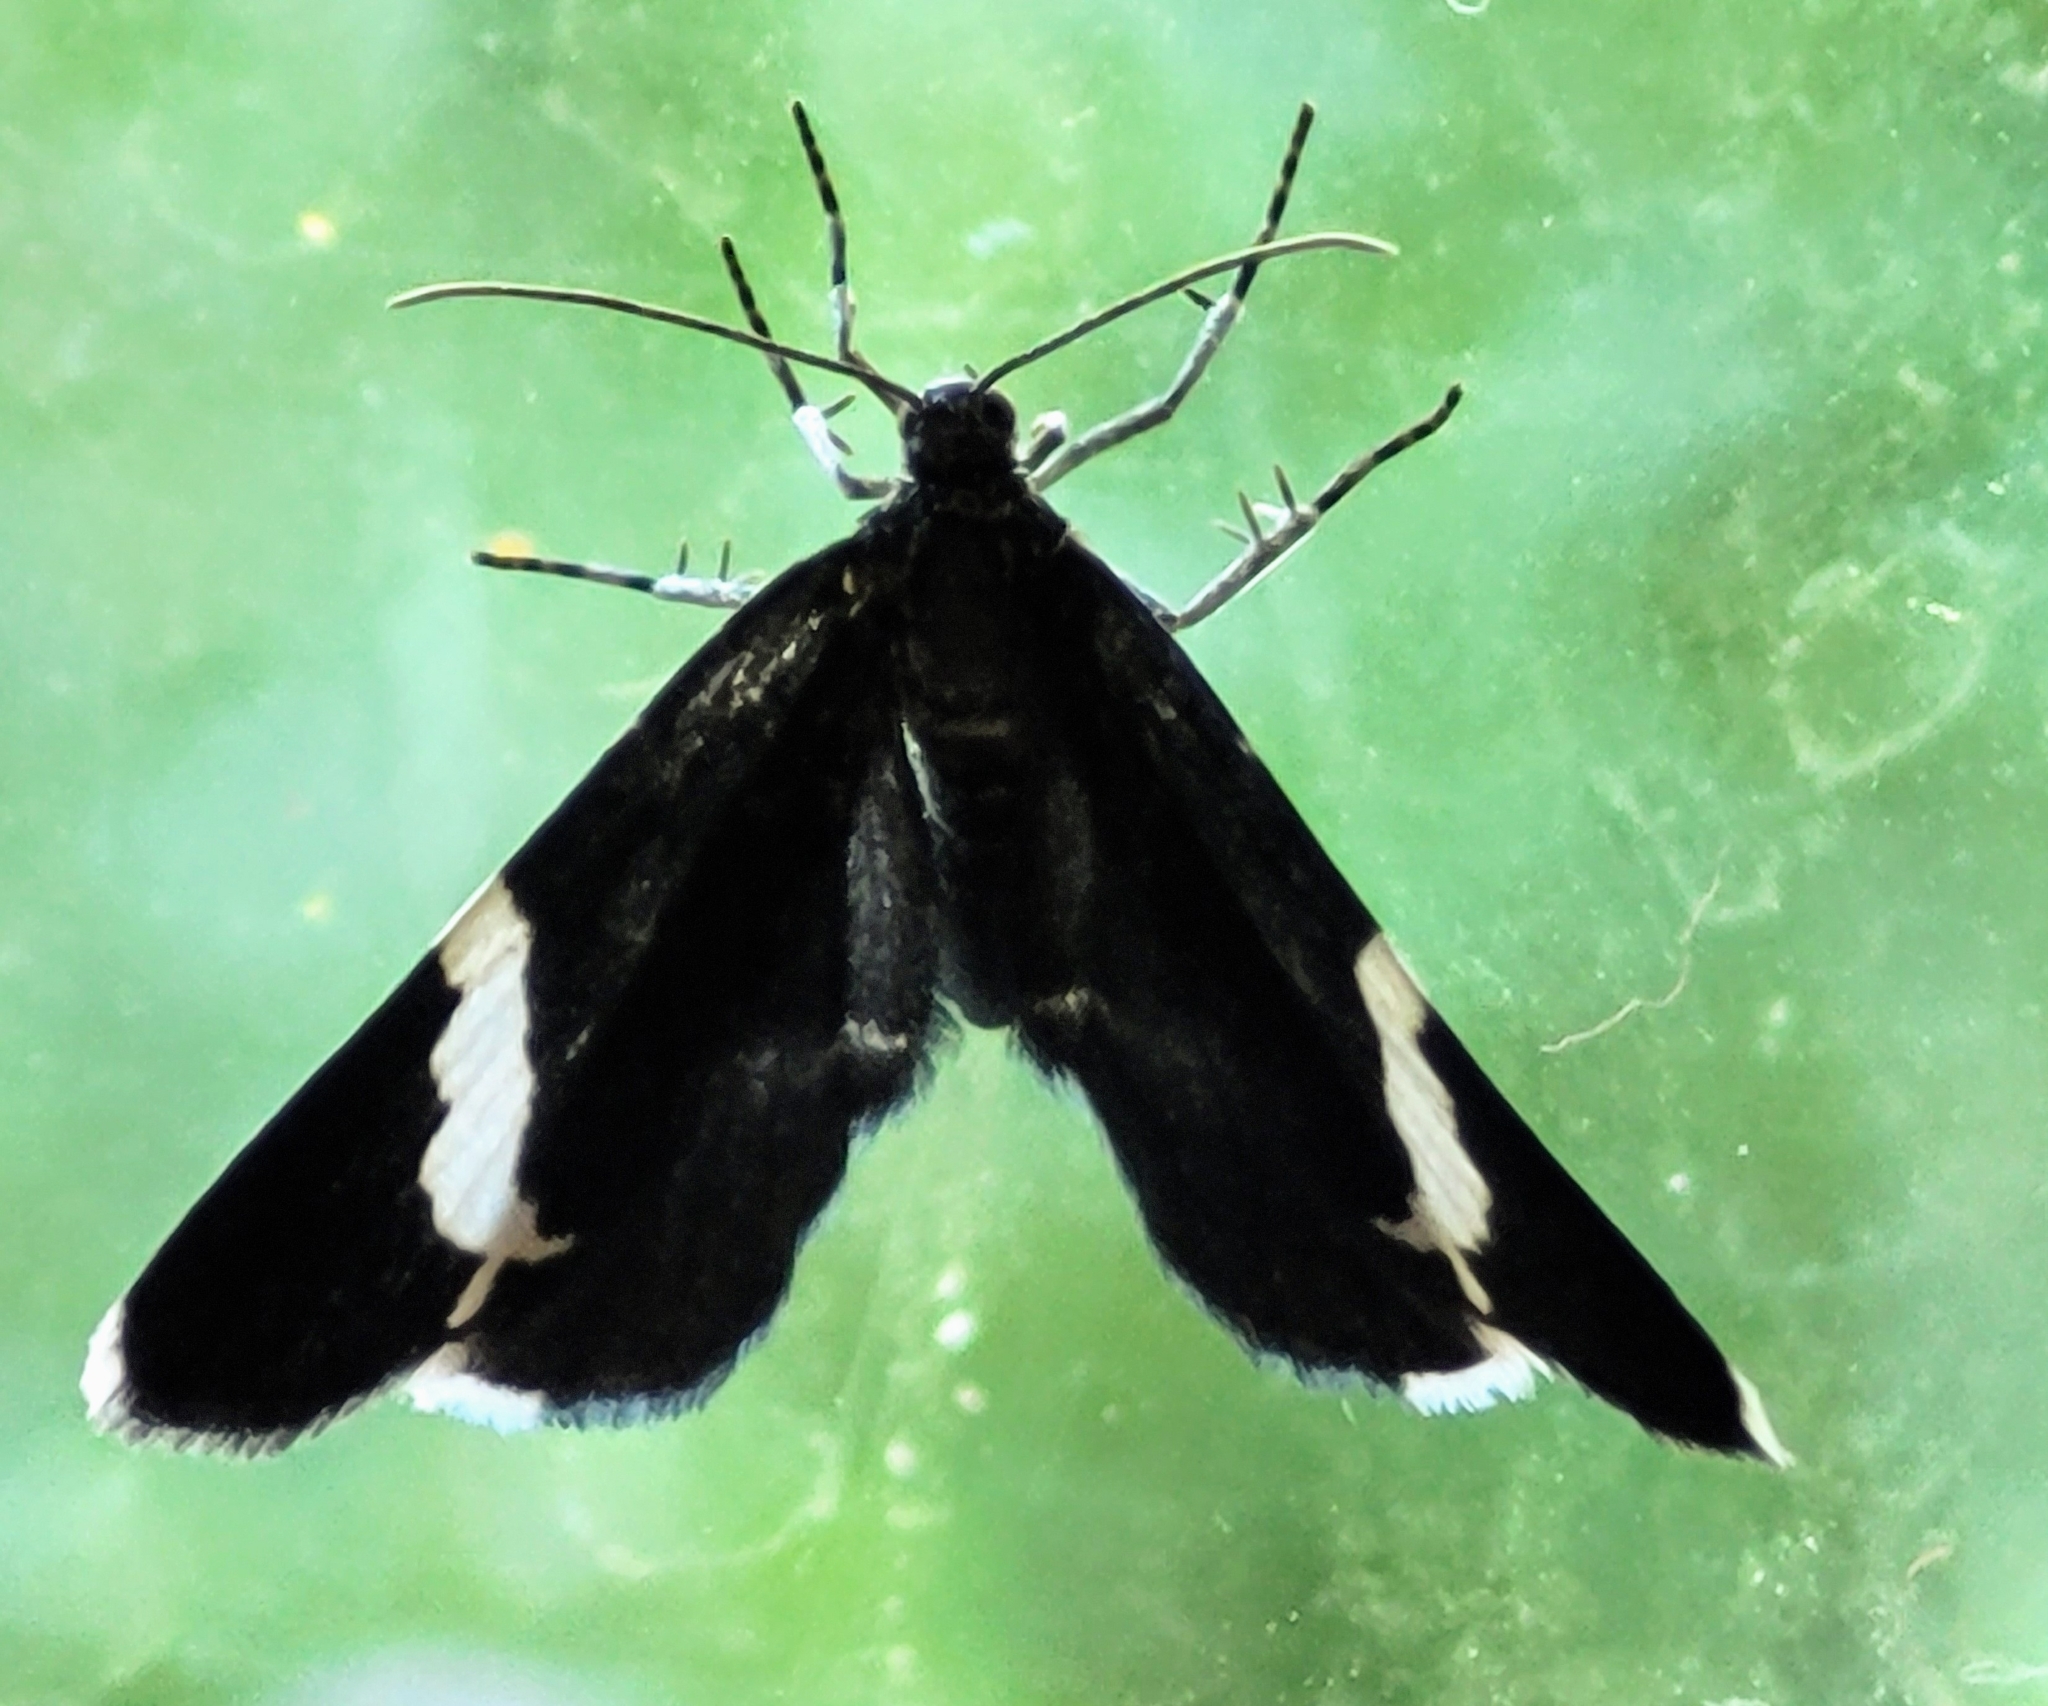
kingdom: Animalia
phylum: Arthropoda
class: Insecta
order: Lepidoptera
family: Geometridae
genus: Trichodezia
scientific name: Trichodezia albovittata
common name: White striped black
